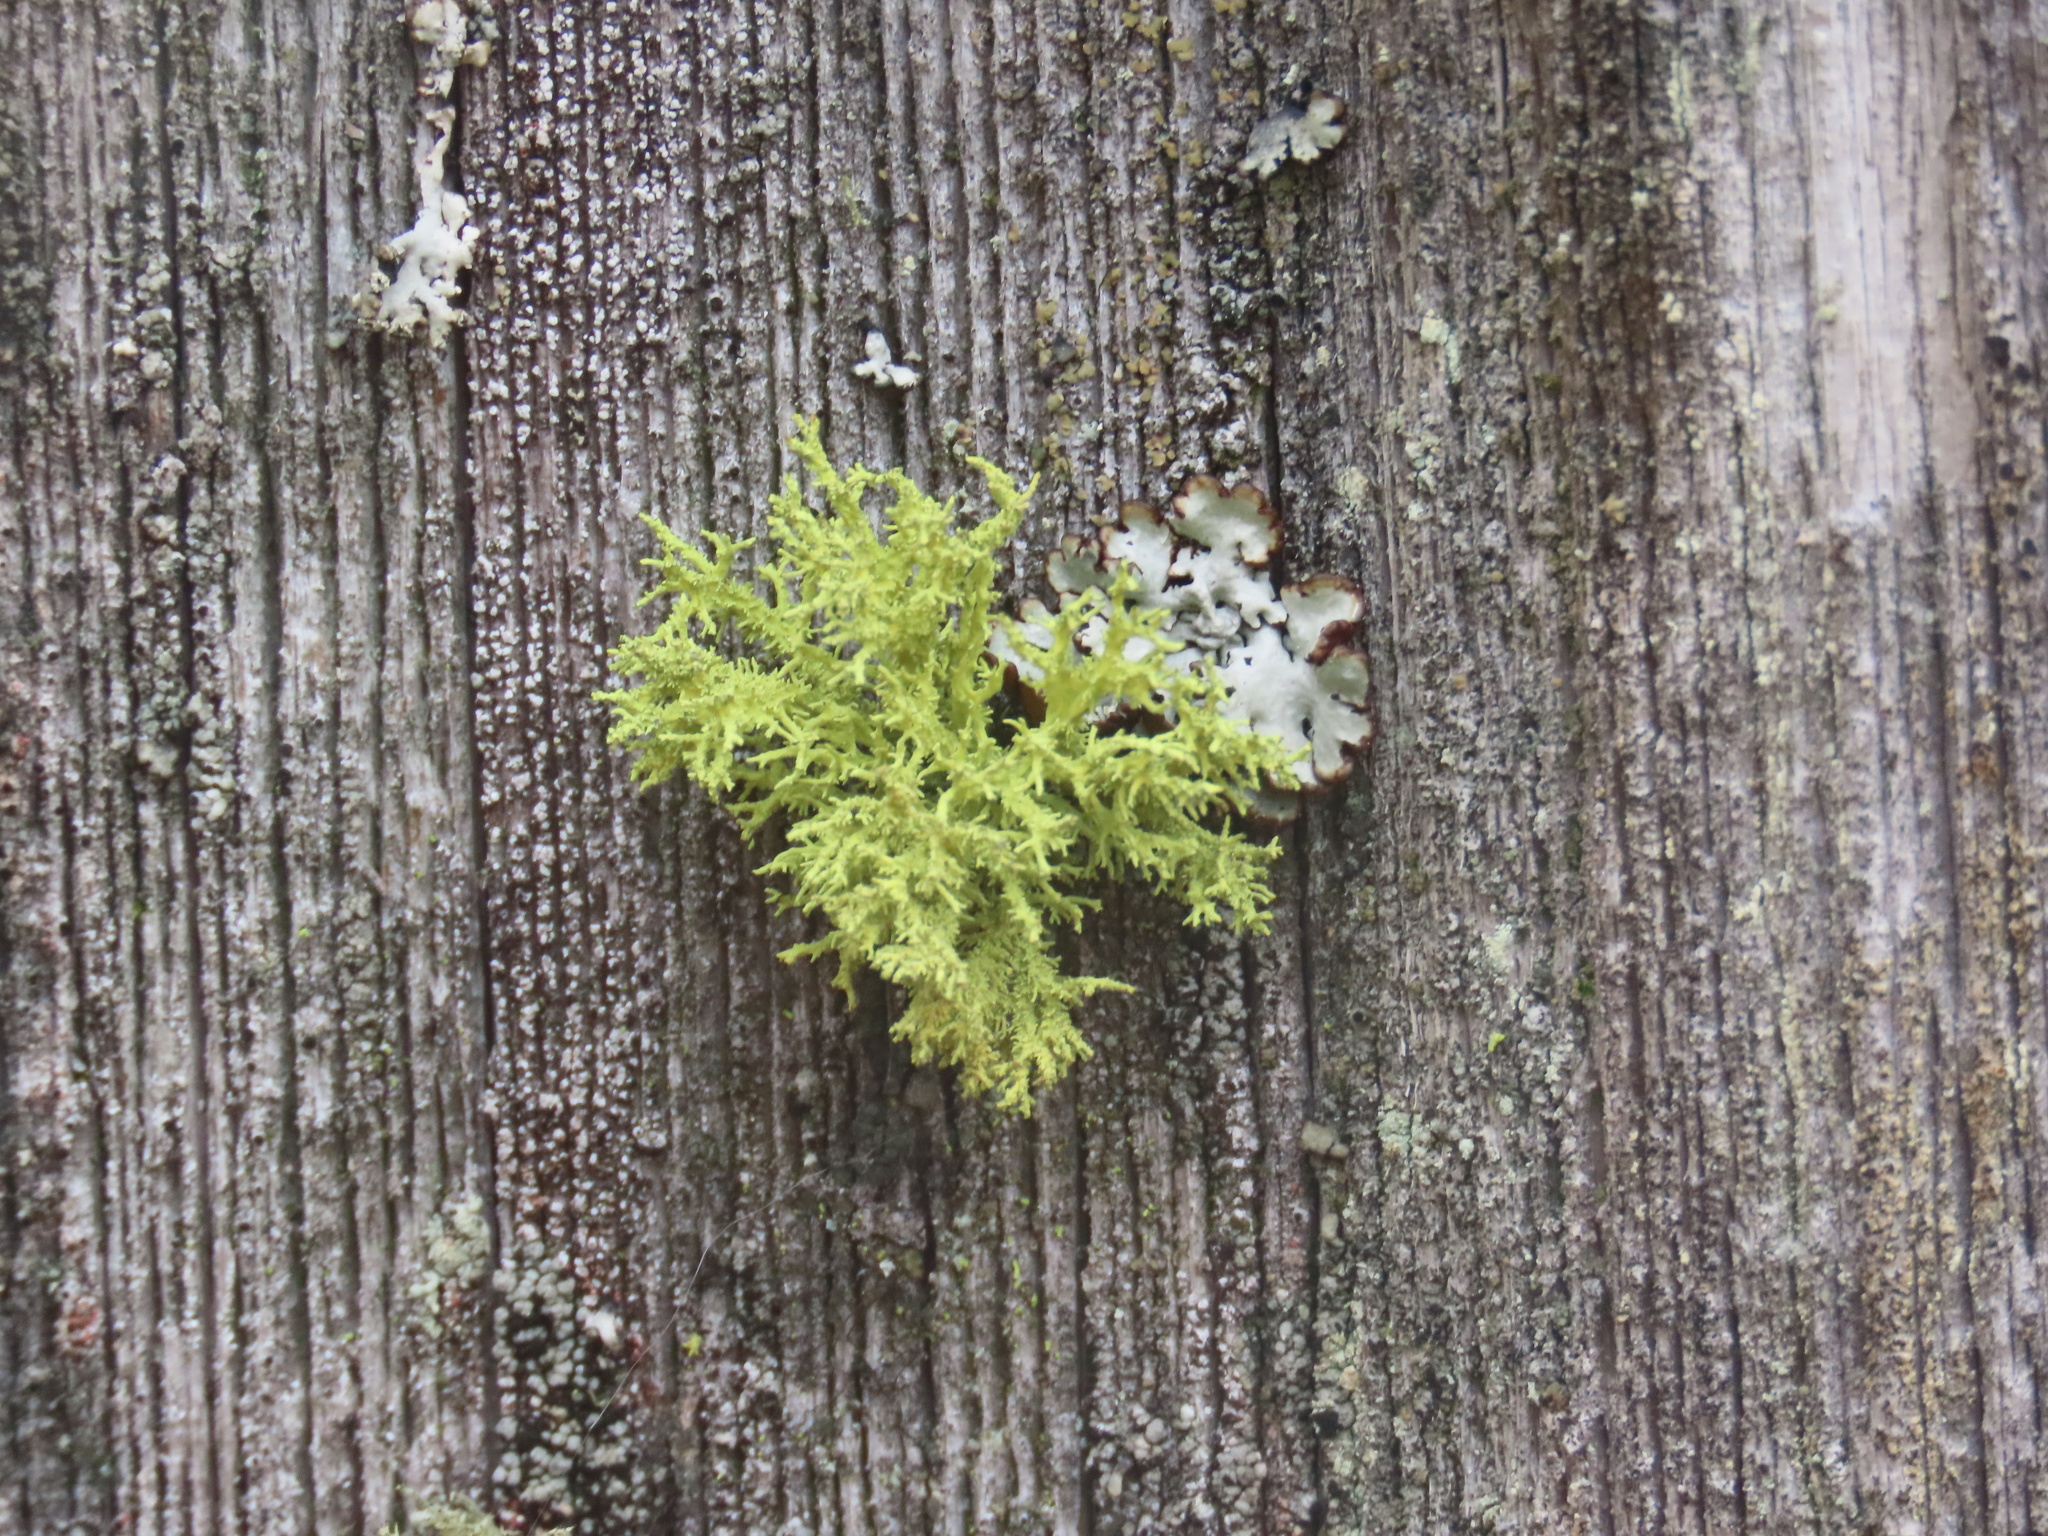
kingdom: Fungi
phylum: Ascomycota
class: Lecanoromycetes
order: Lecanorales
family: Parmeliaceae
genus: Letharia
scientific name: Letharia vulpina
